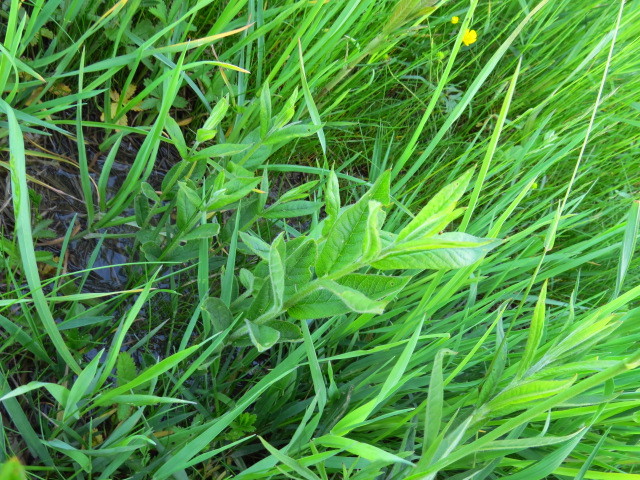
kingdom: Plantae
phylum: Tracheophyta
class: Magnoliopsida
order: Ericales
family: Primulaceae
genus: Lysimachia
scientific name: Lysimachia vulgaris
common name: Yellow loosestrife
